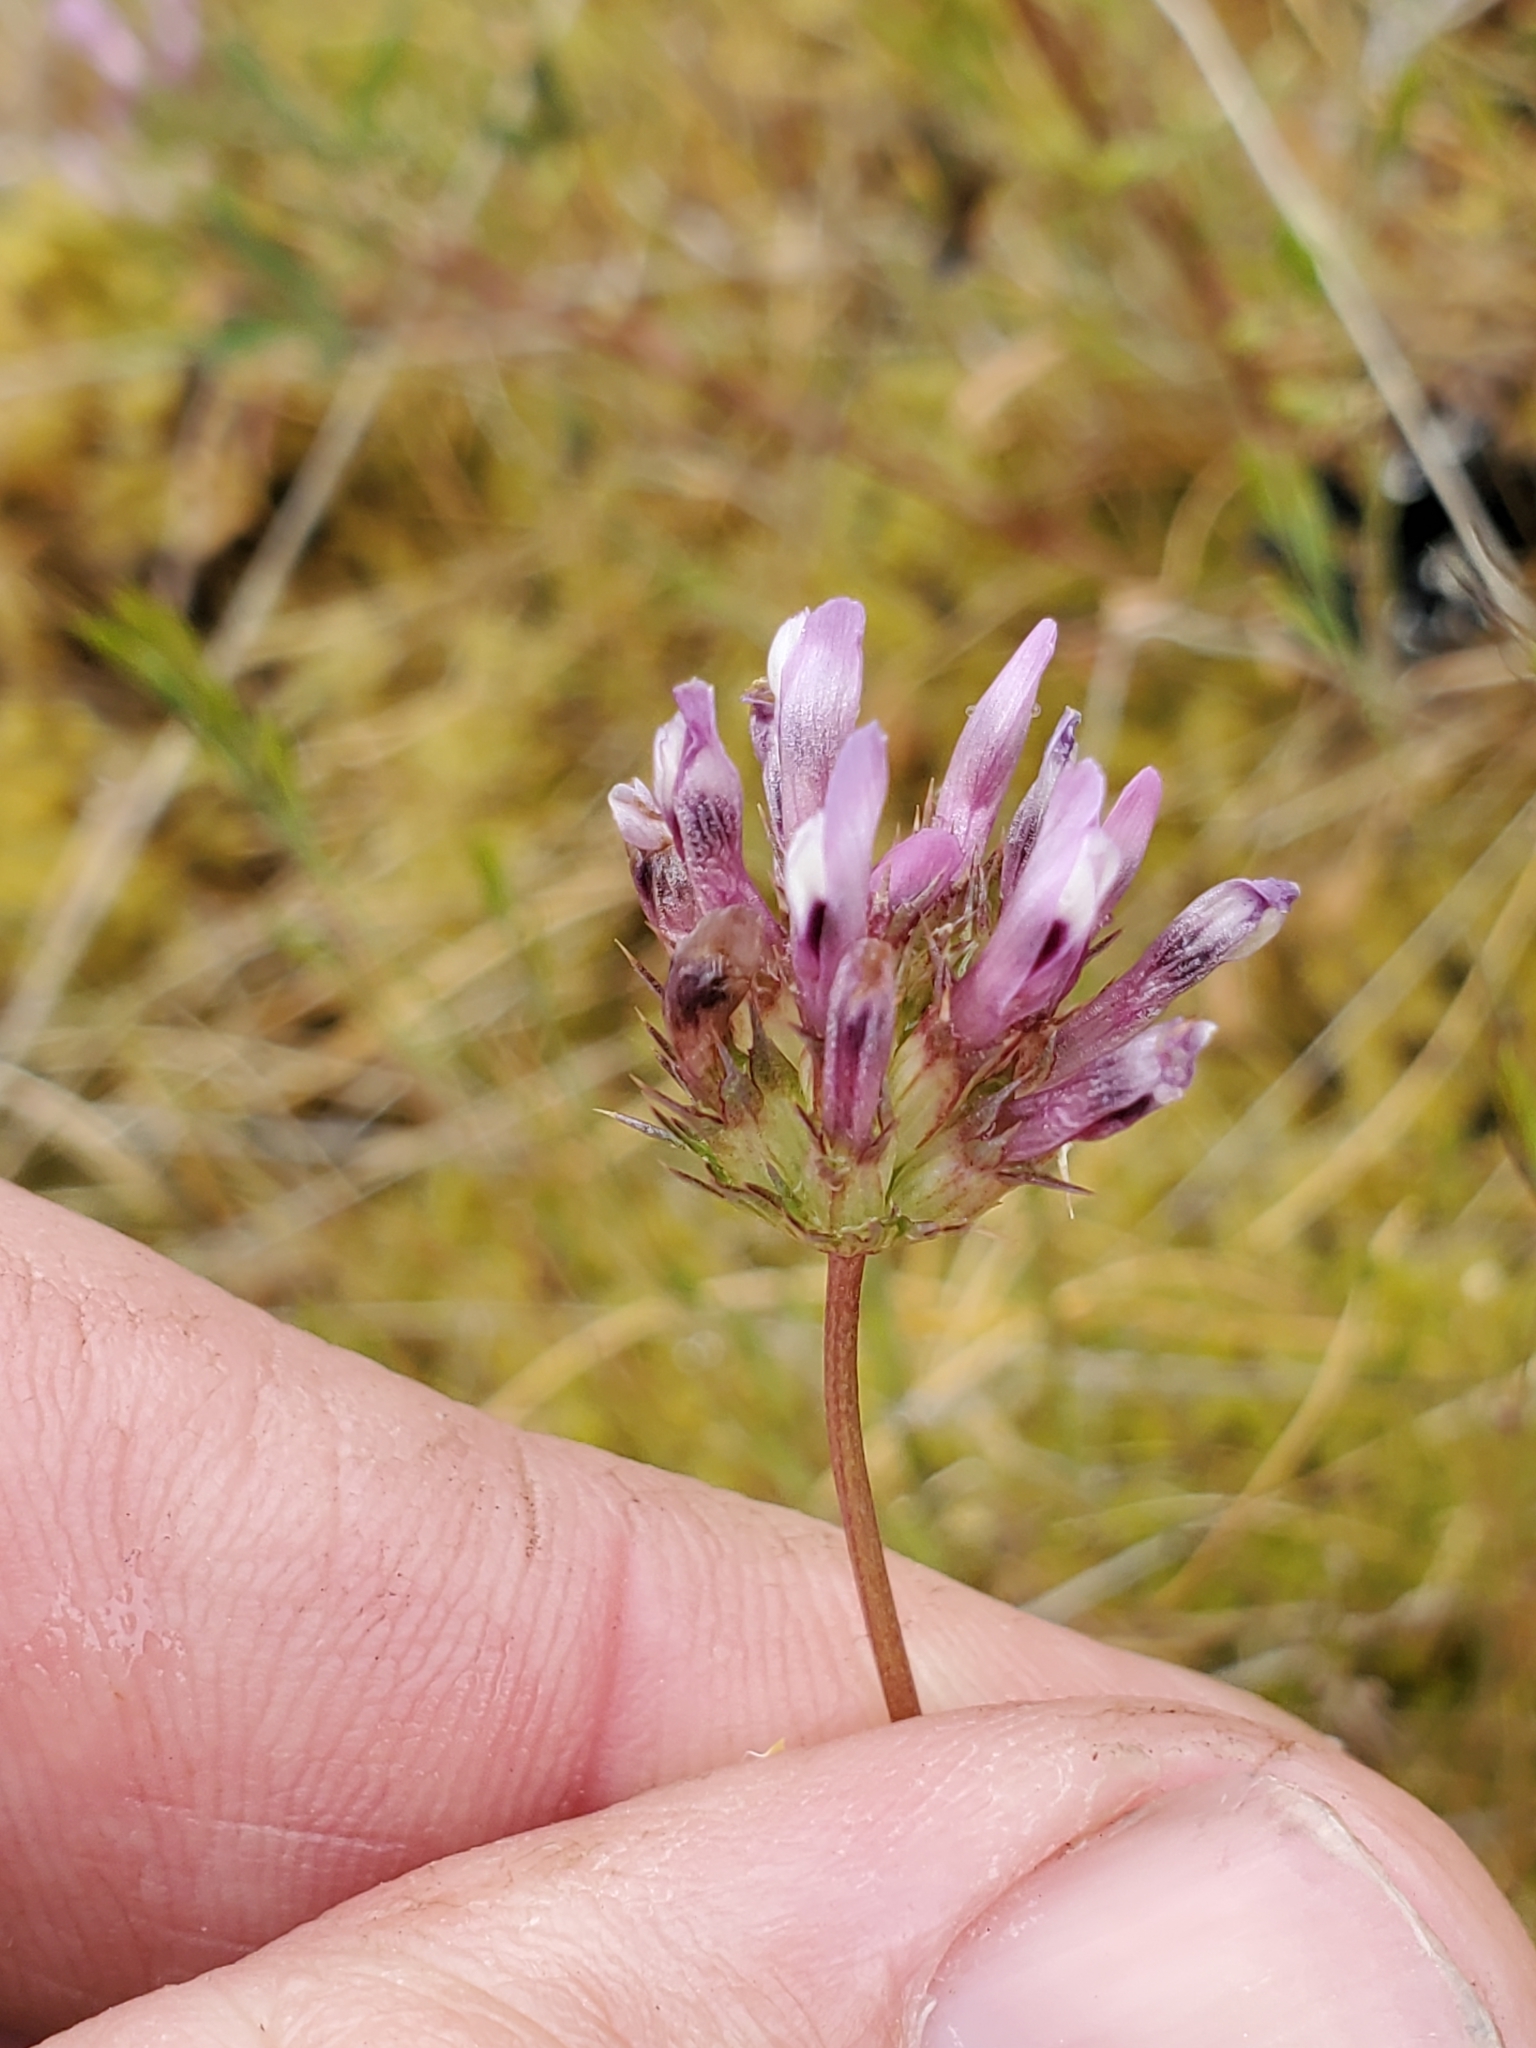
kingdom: Plantae
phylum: Tracheophyta
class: Magnoliopsida
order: Fabales
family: Fabaceae
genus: Trifolium
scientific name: Trifolium willdenovii
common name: Tomcat clover
